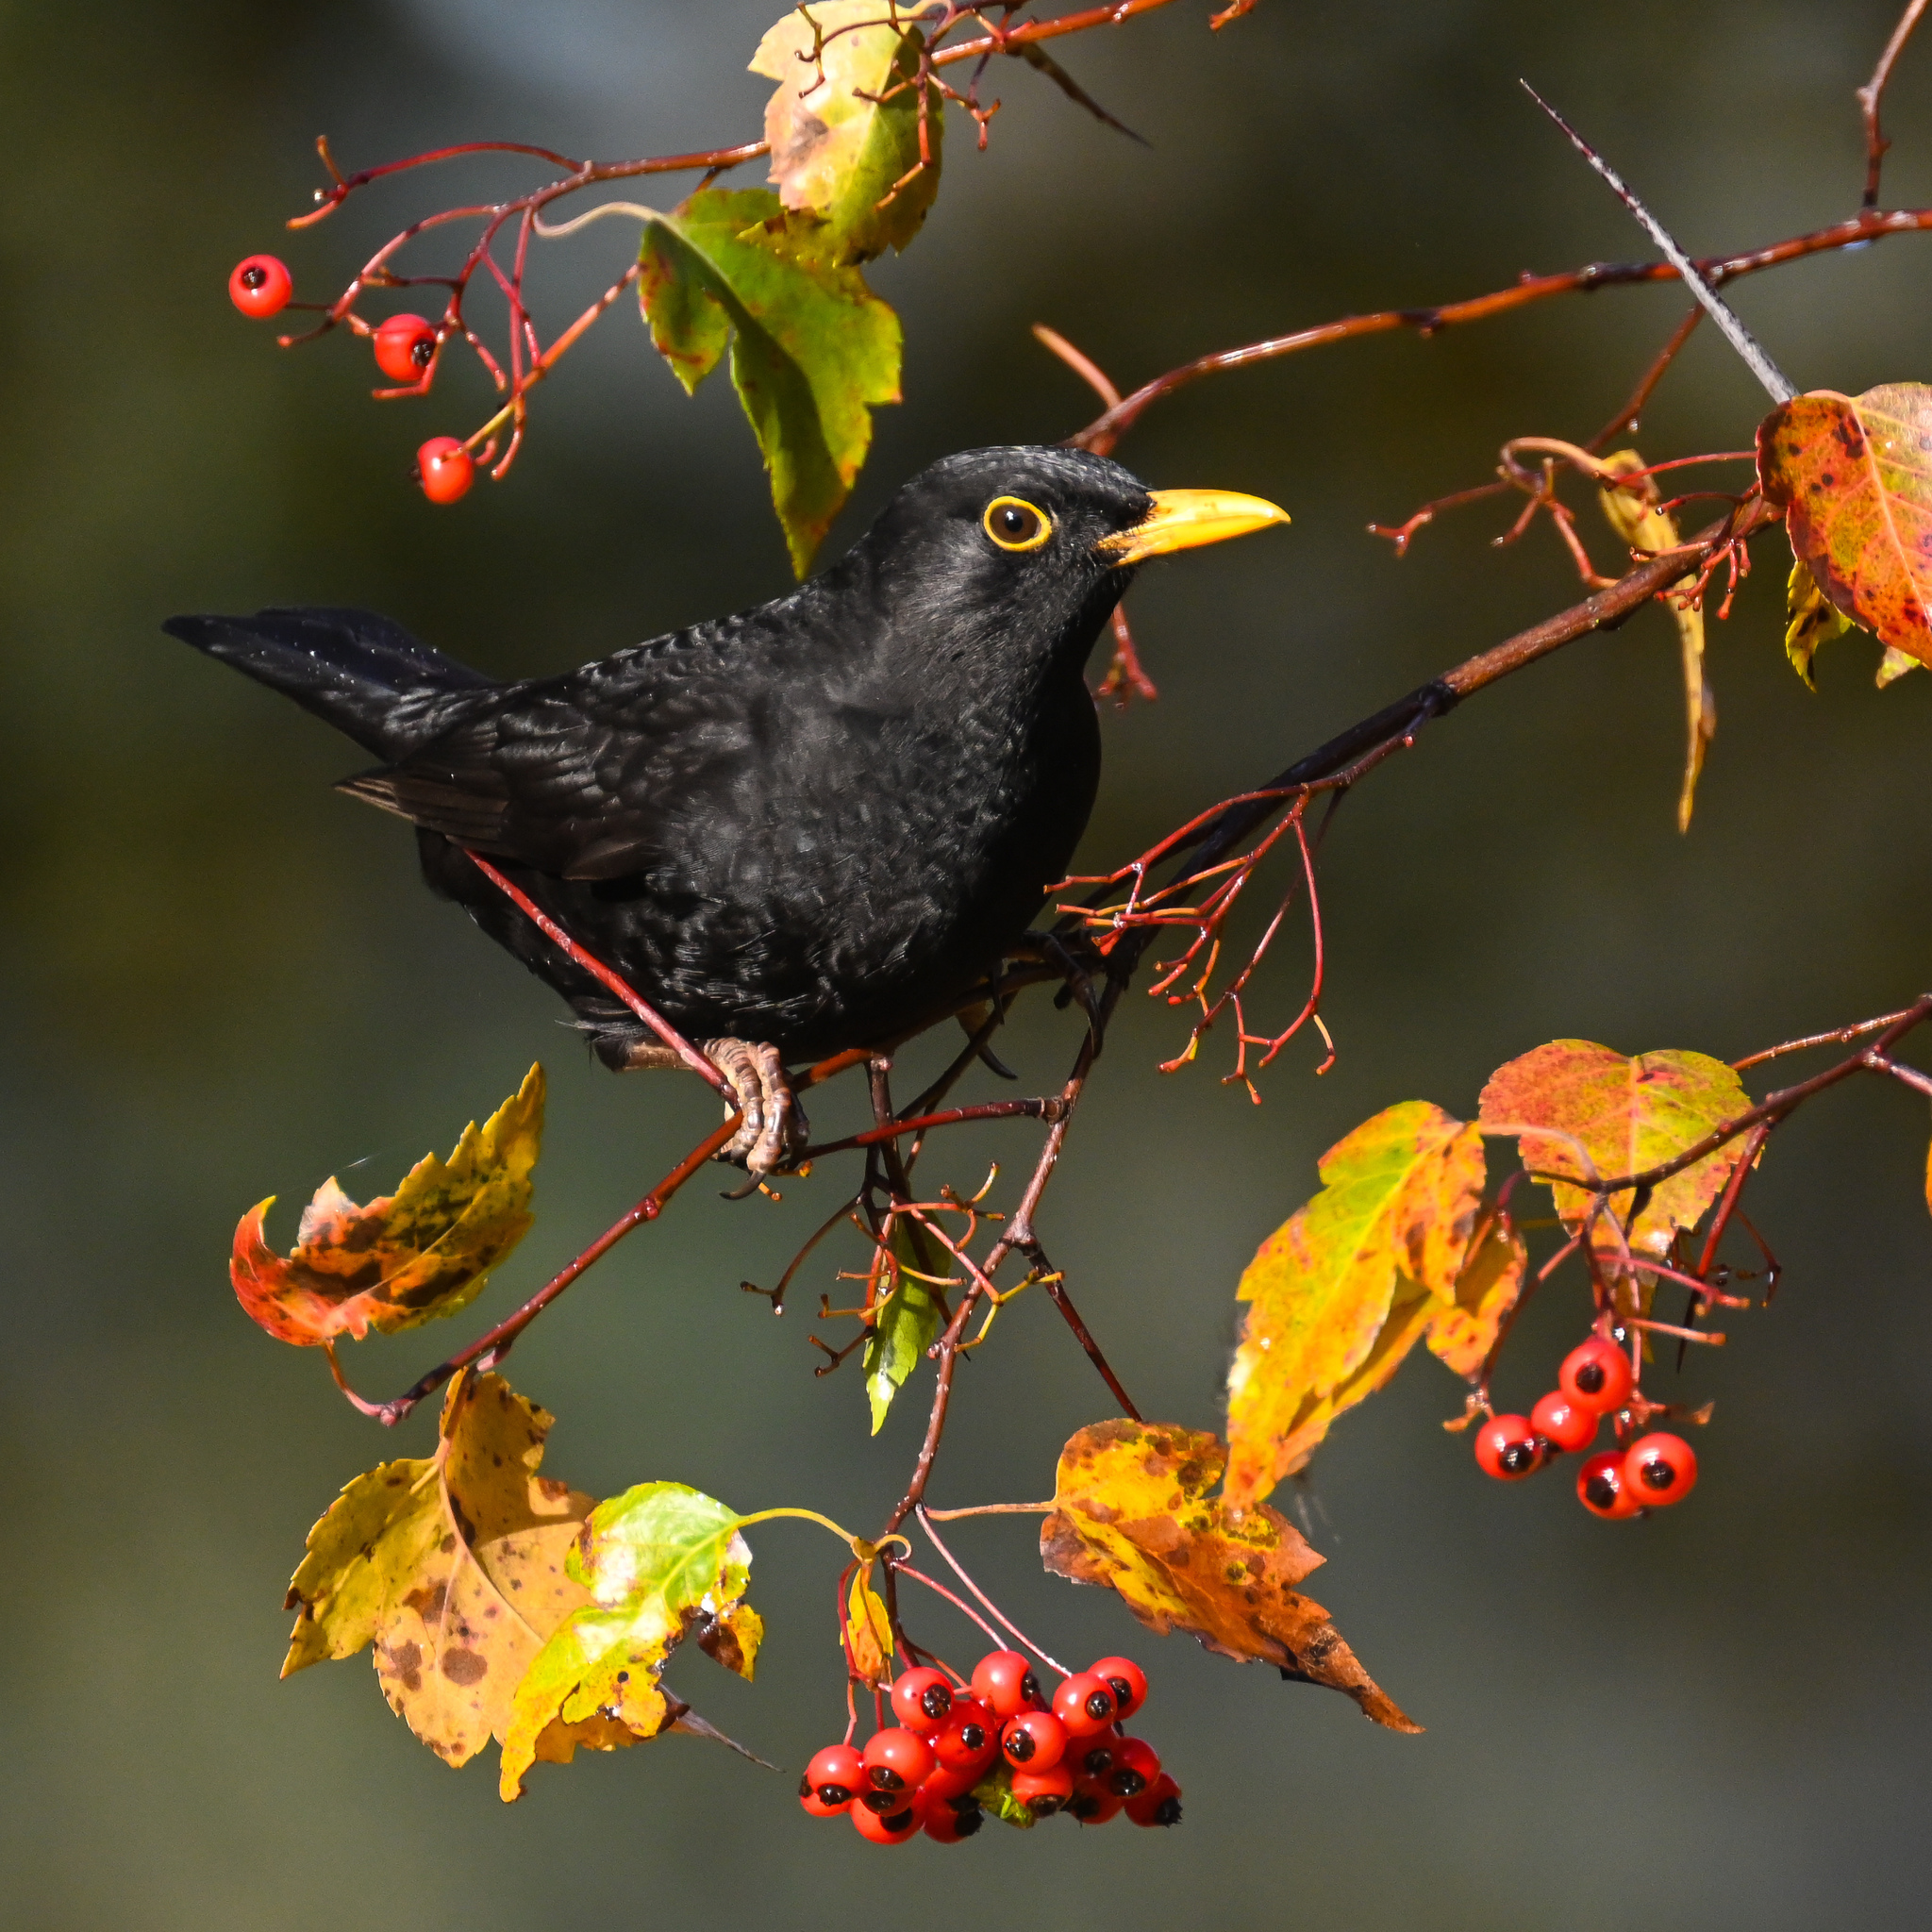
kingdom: Animalia
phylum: Chordata
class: Aves
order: Passeriformes
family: Turdidae
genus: Turdus
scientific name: Turdus merula
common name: Common blackbird
